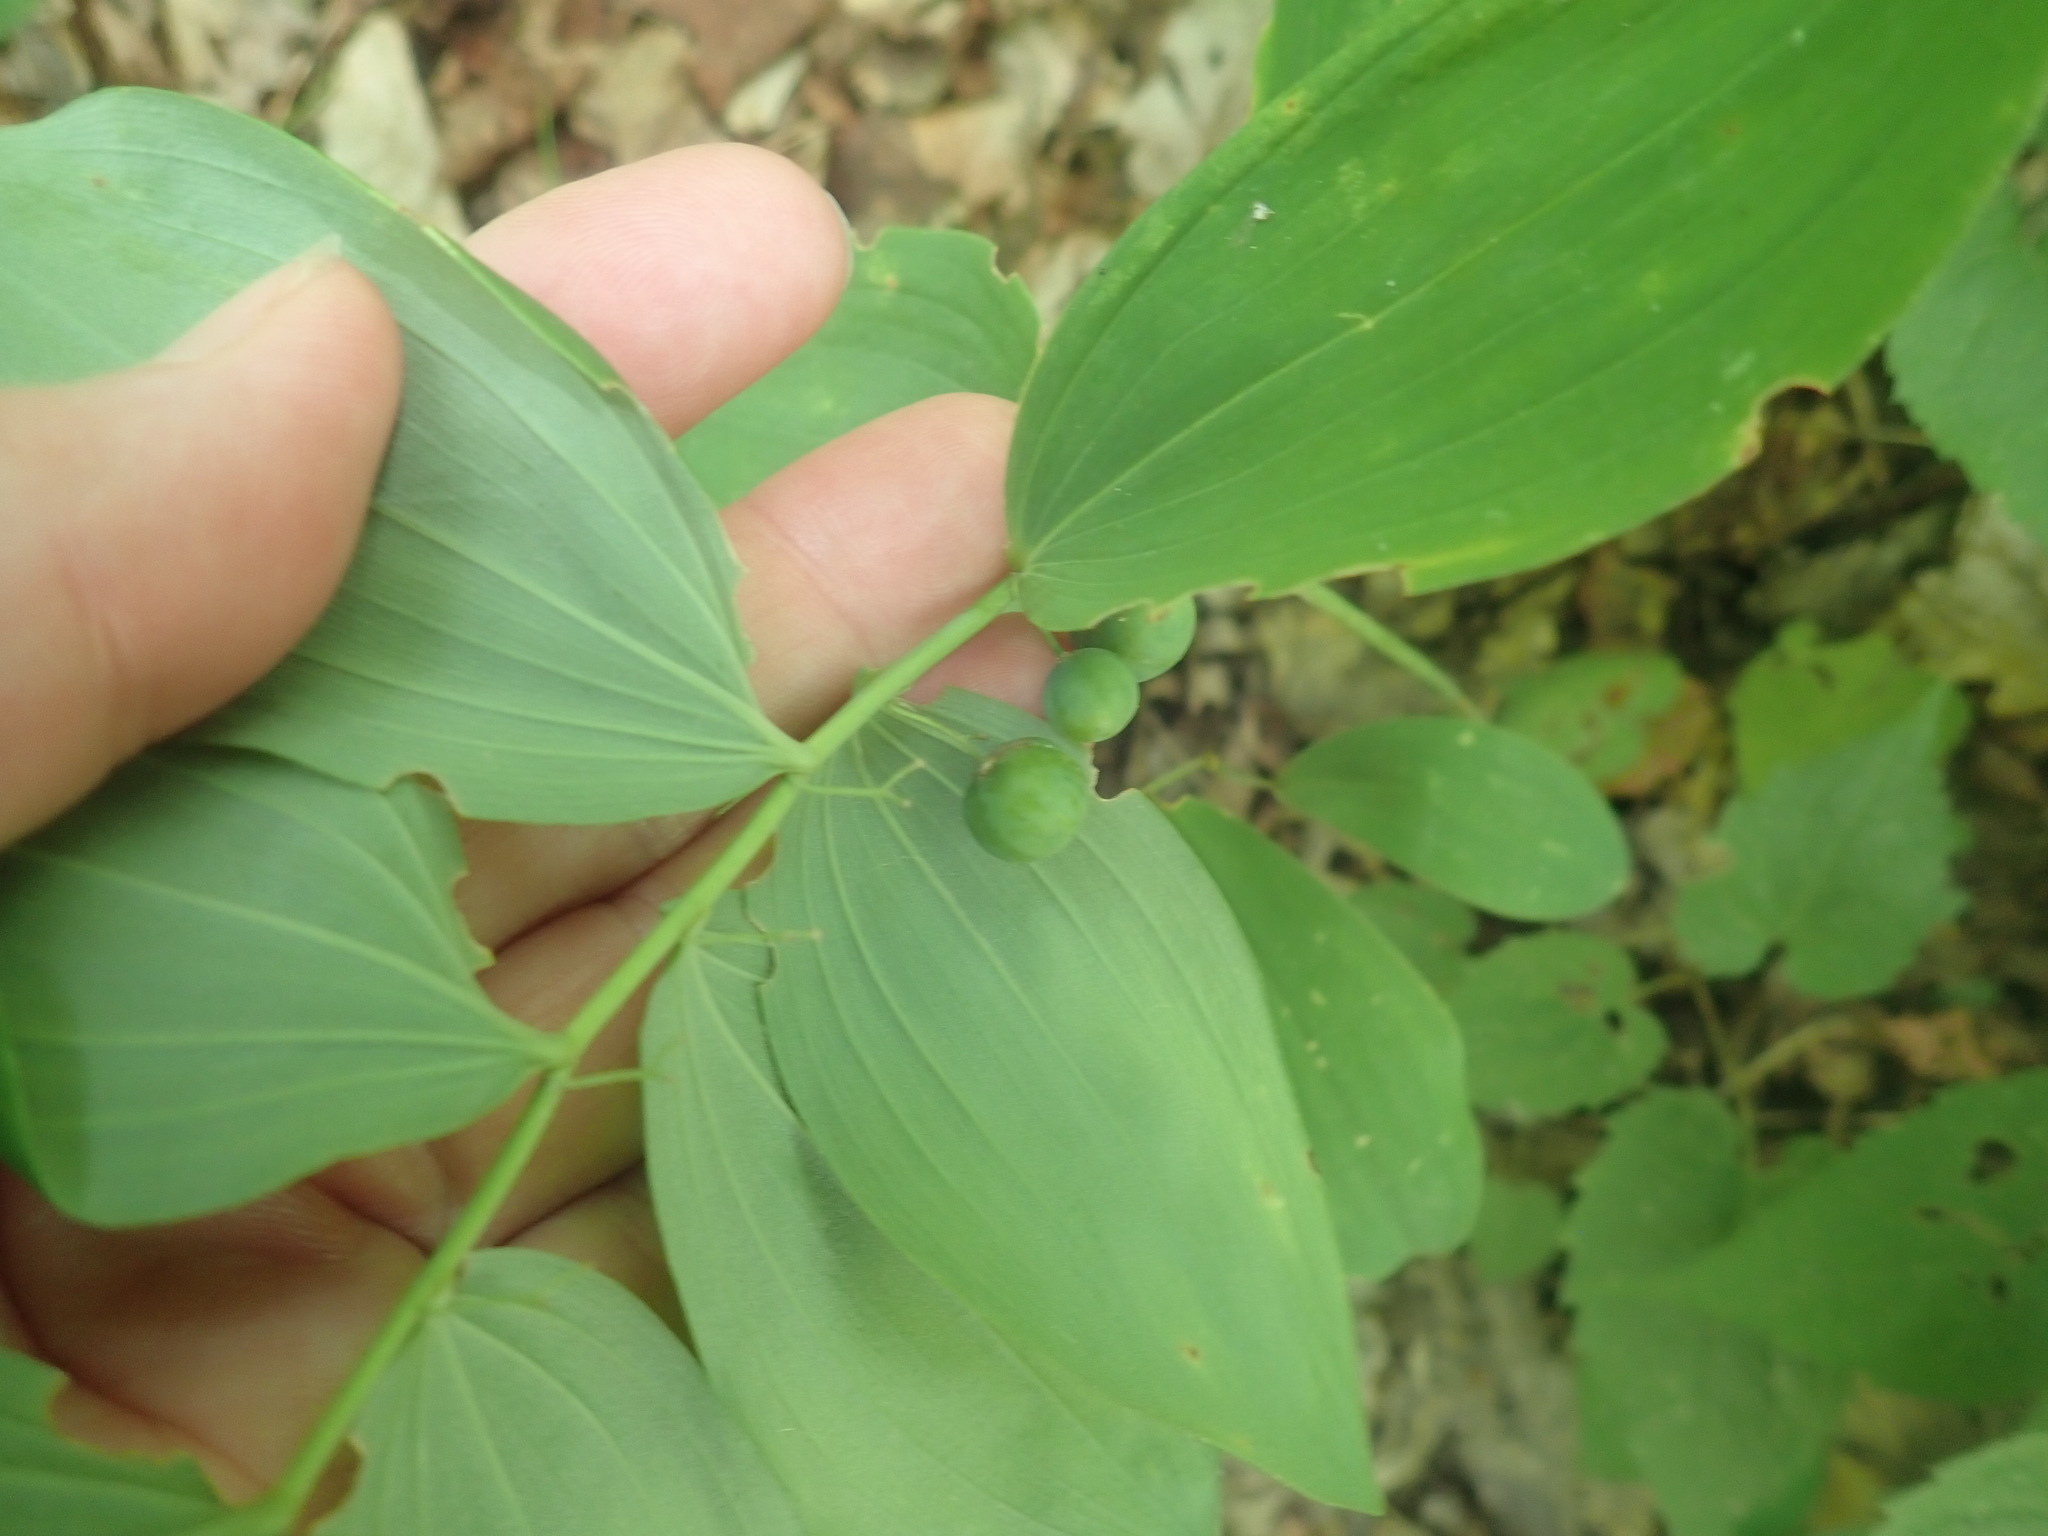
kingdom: Plantae
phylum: Tracheophyta
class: Liliopsida
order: Asparagales
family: Asparagaceae
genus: Polygonatum
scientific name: Polygonatum pubescens
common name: Downy solomon's seal
